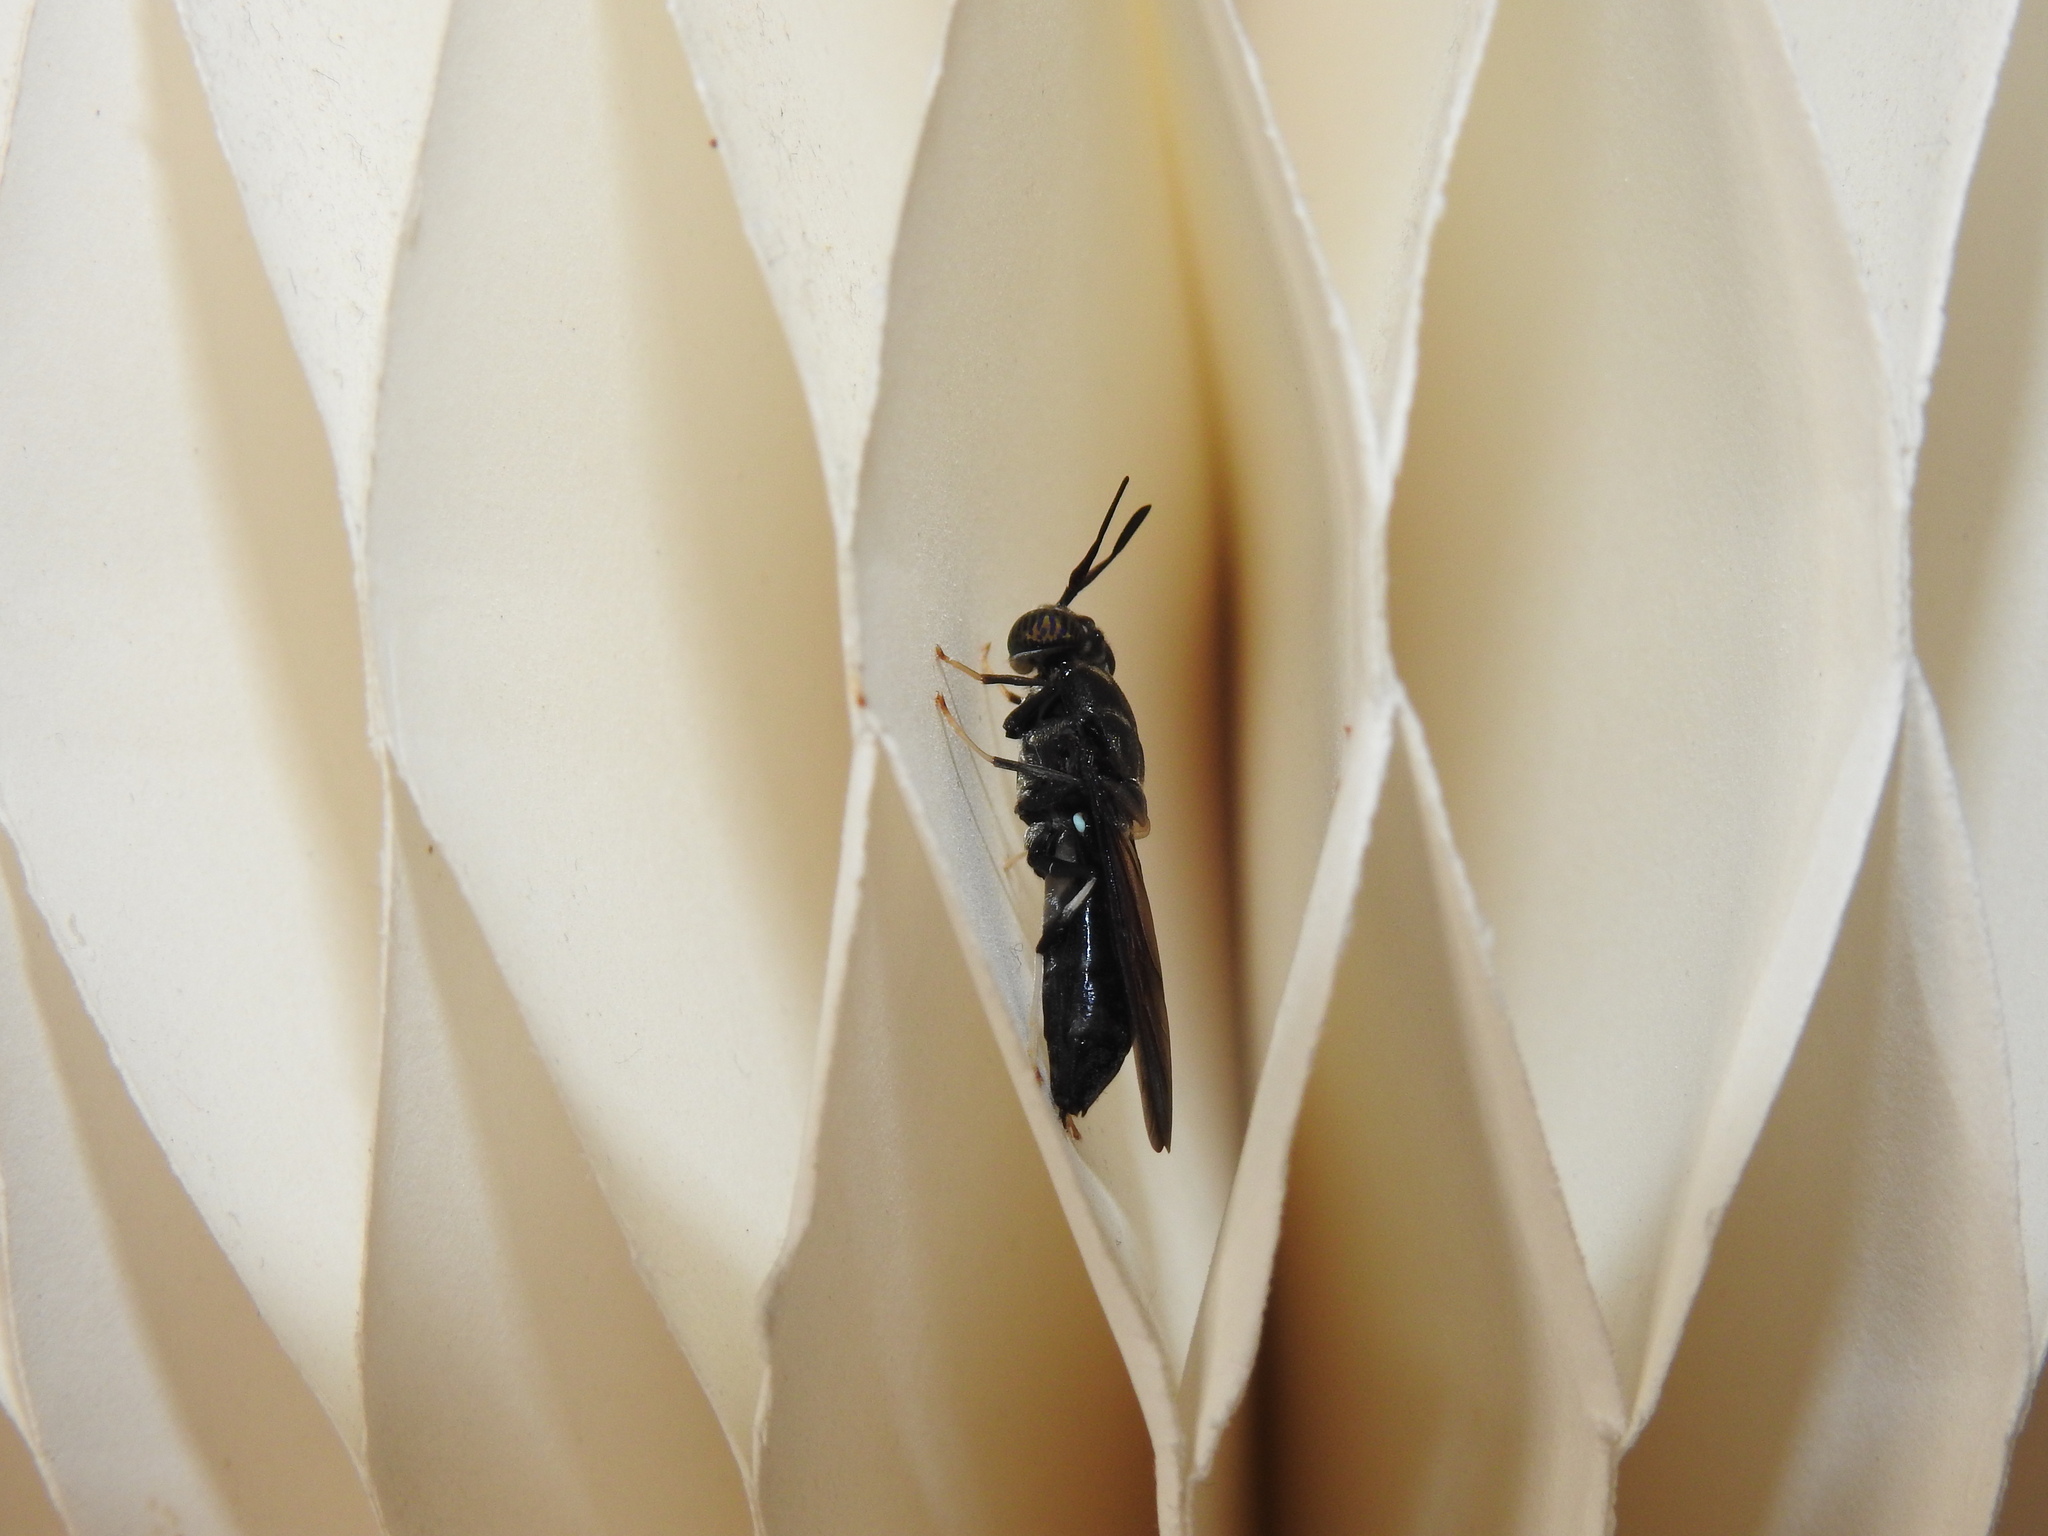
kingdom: Animalia
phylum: Arthropoda
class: Insecta
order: Diptera
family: Stratiomyidae
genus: Hermetia
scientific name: Hermetia illucens
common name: Black soldier fly
